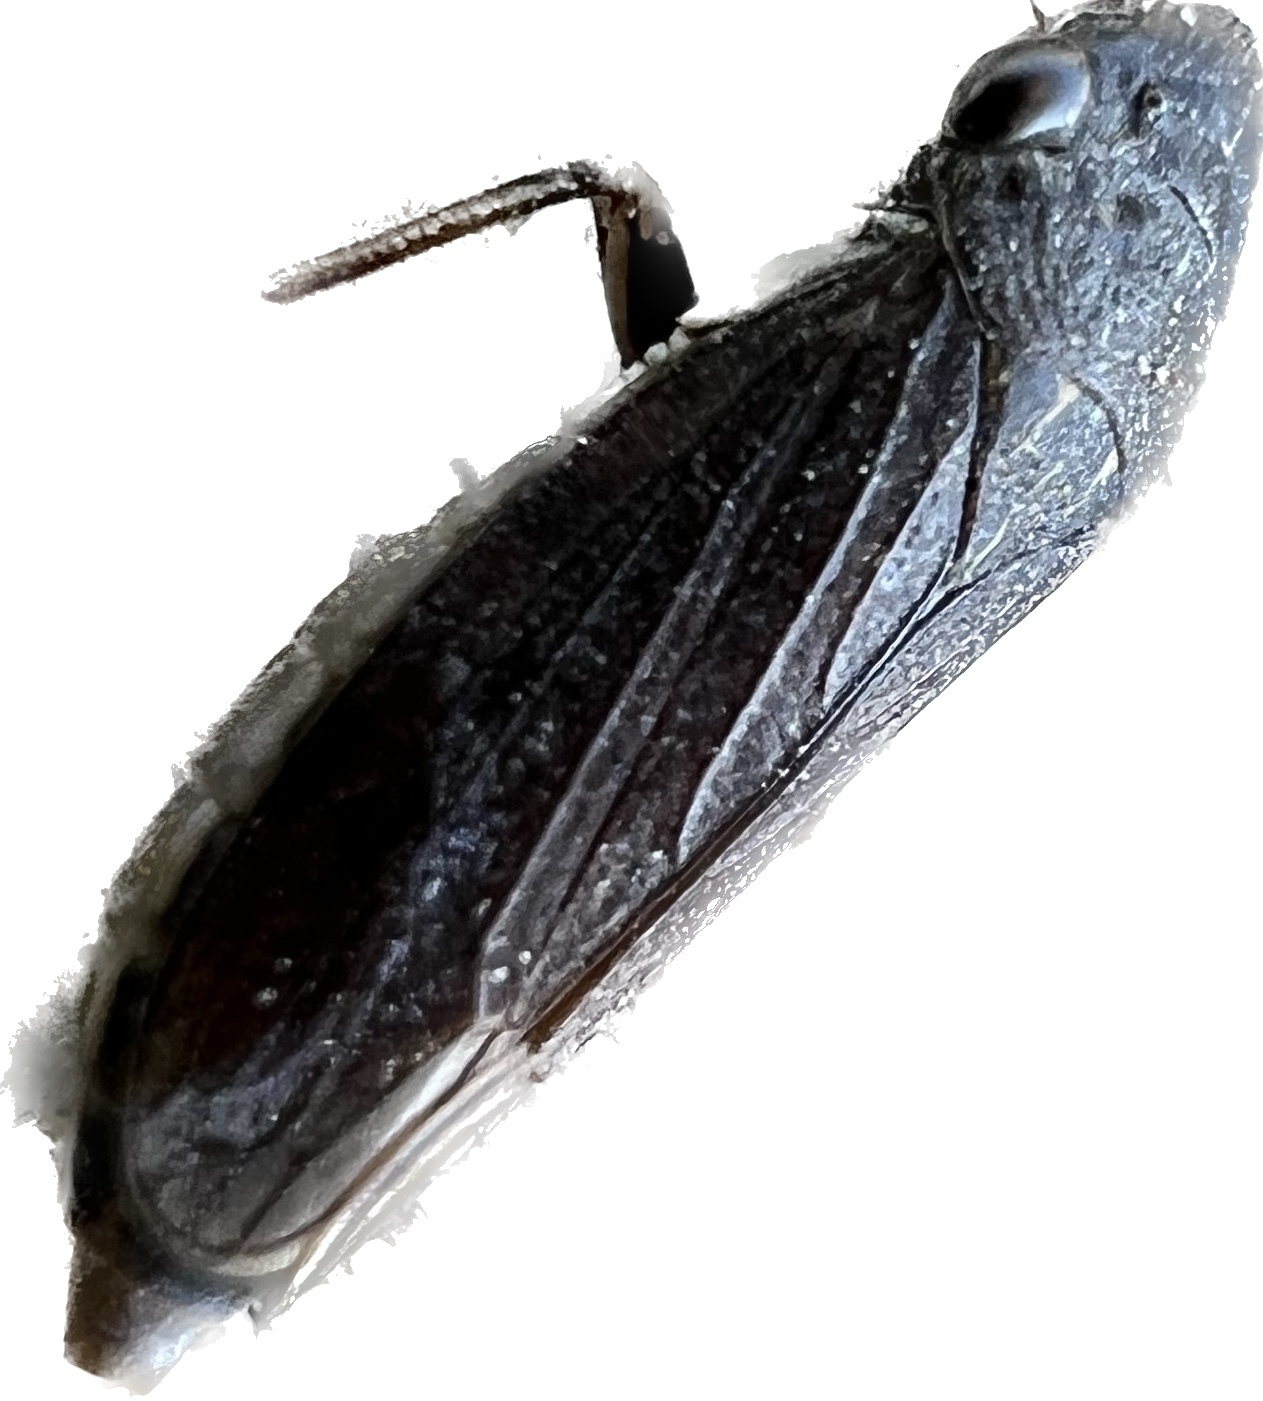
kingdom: Animalia
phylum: Arthropoda
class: Insecta
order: Hemiptera
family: Cicadellidae
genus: Cuerna
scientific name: Cuerna unica
